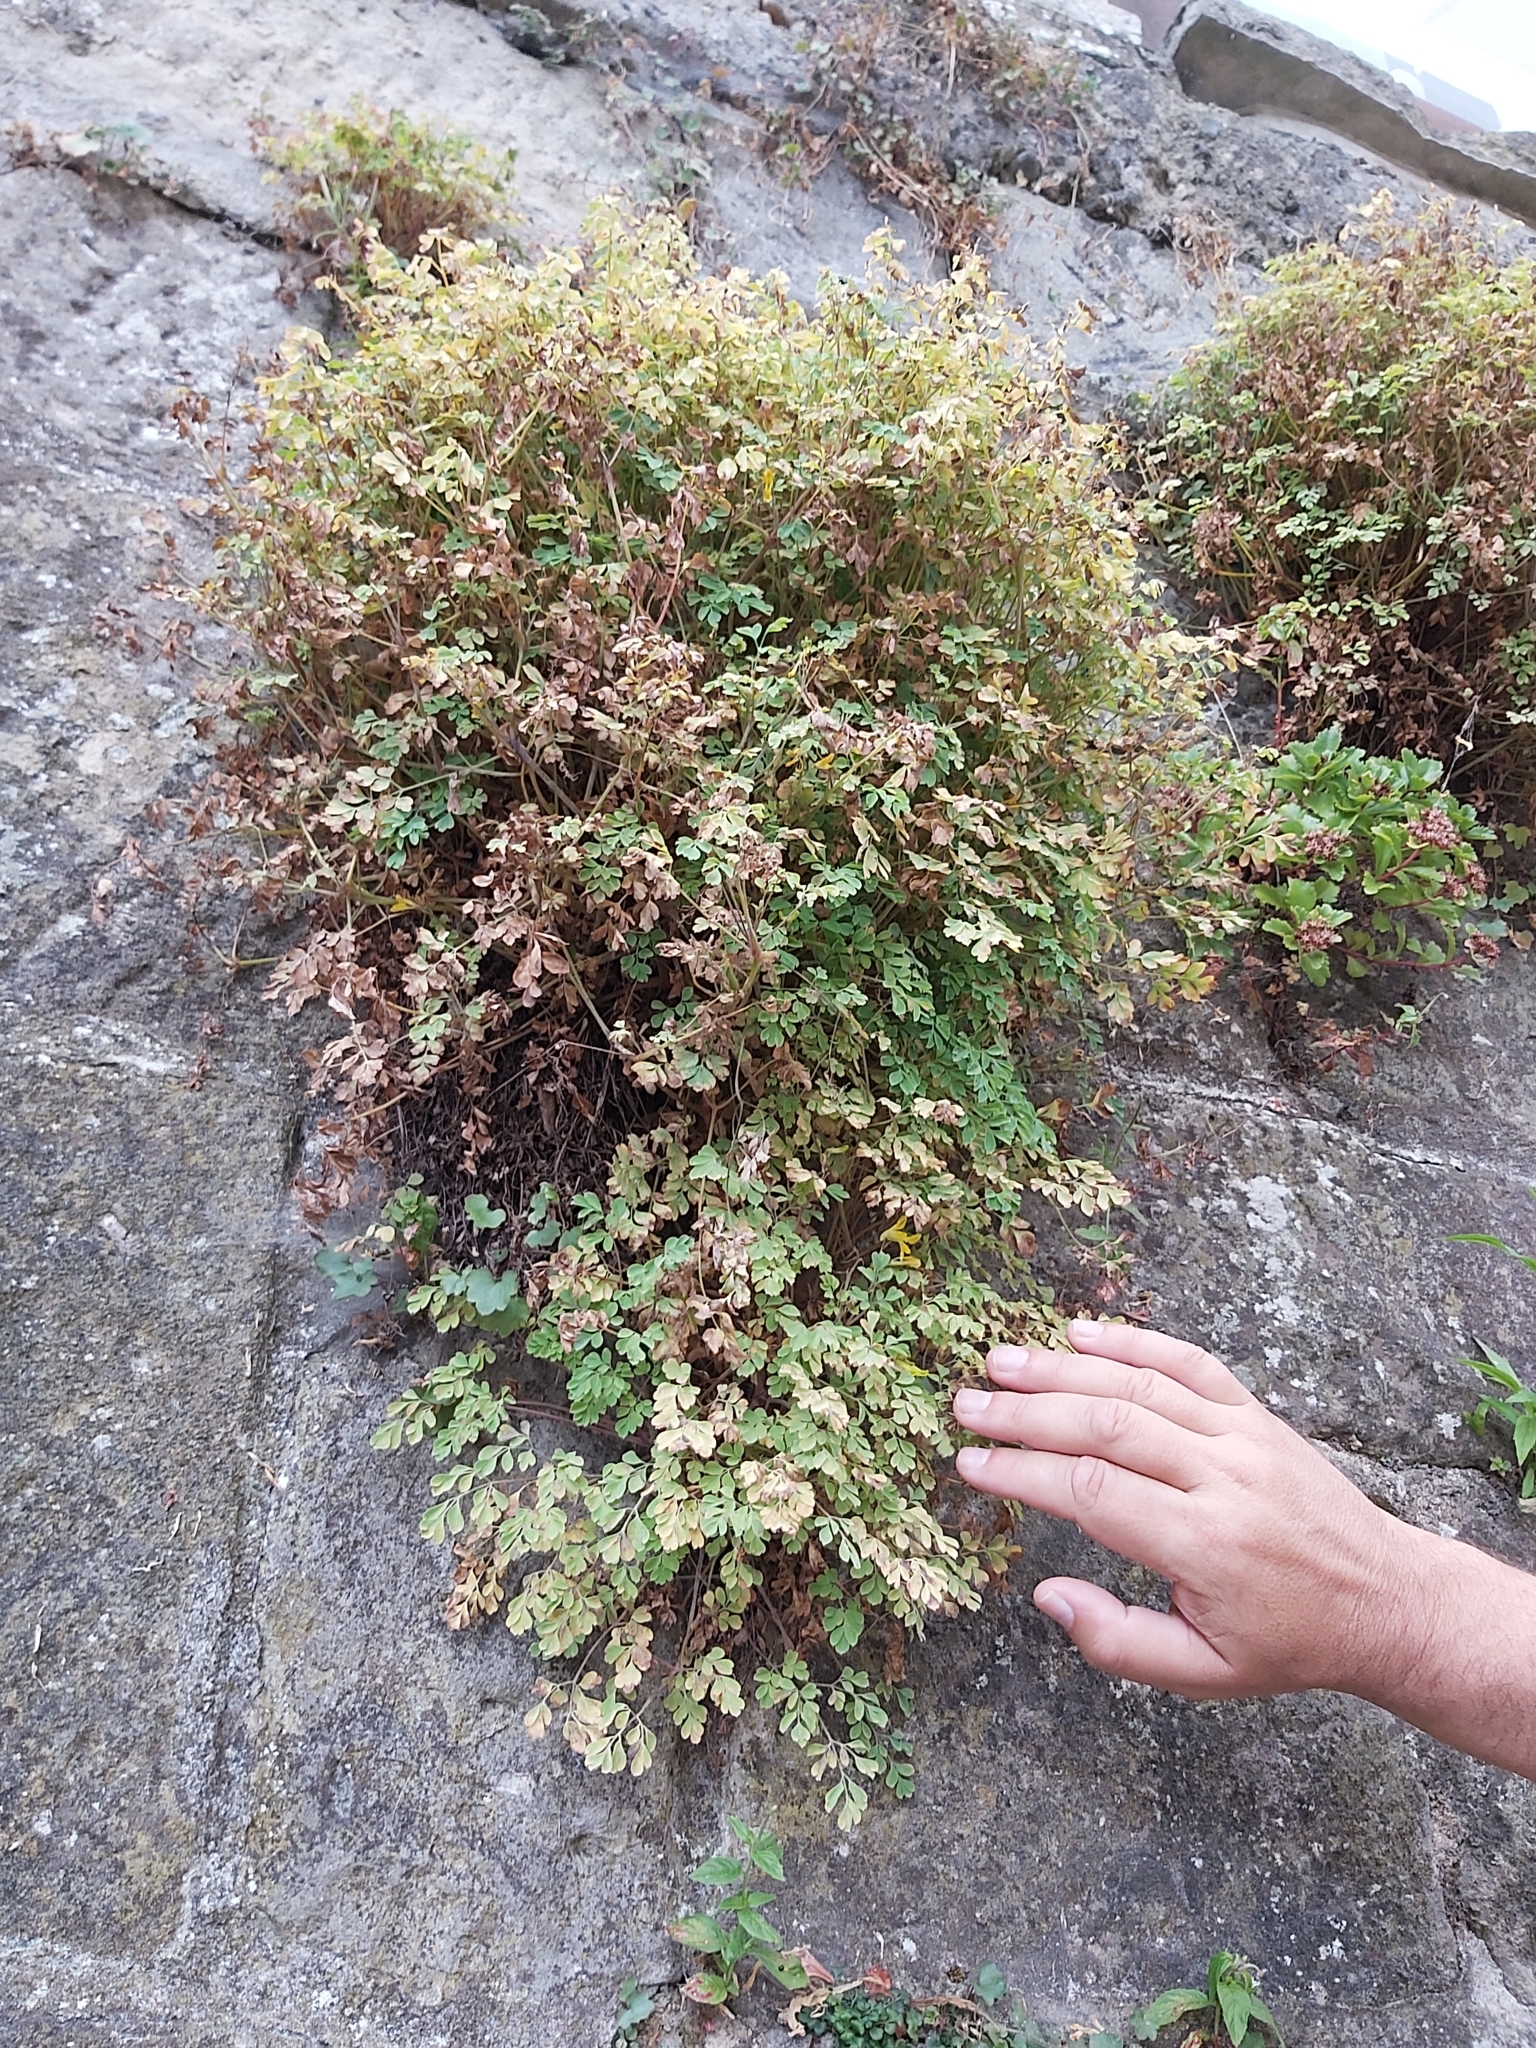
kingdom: Plantae
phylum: Tracheophyta
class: Magnoliopsida
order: Ranunculales
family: Papaveraceae
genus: Pseudofumaria
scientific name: Pseudofumaria lutea
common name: Yellow corydalis
